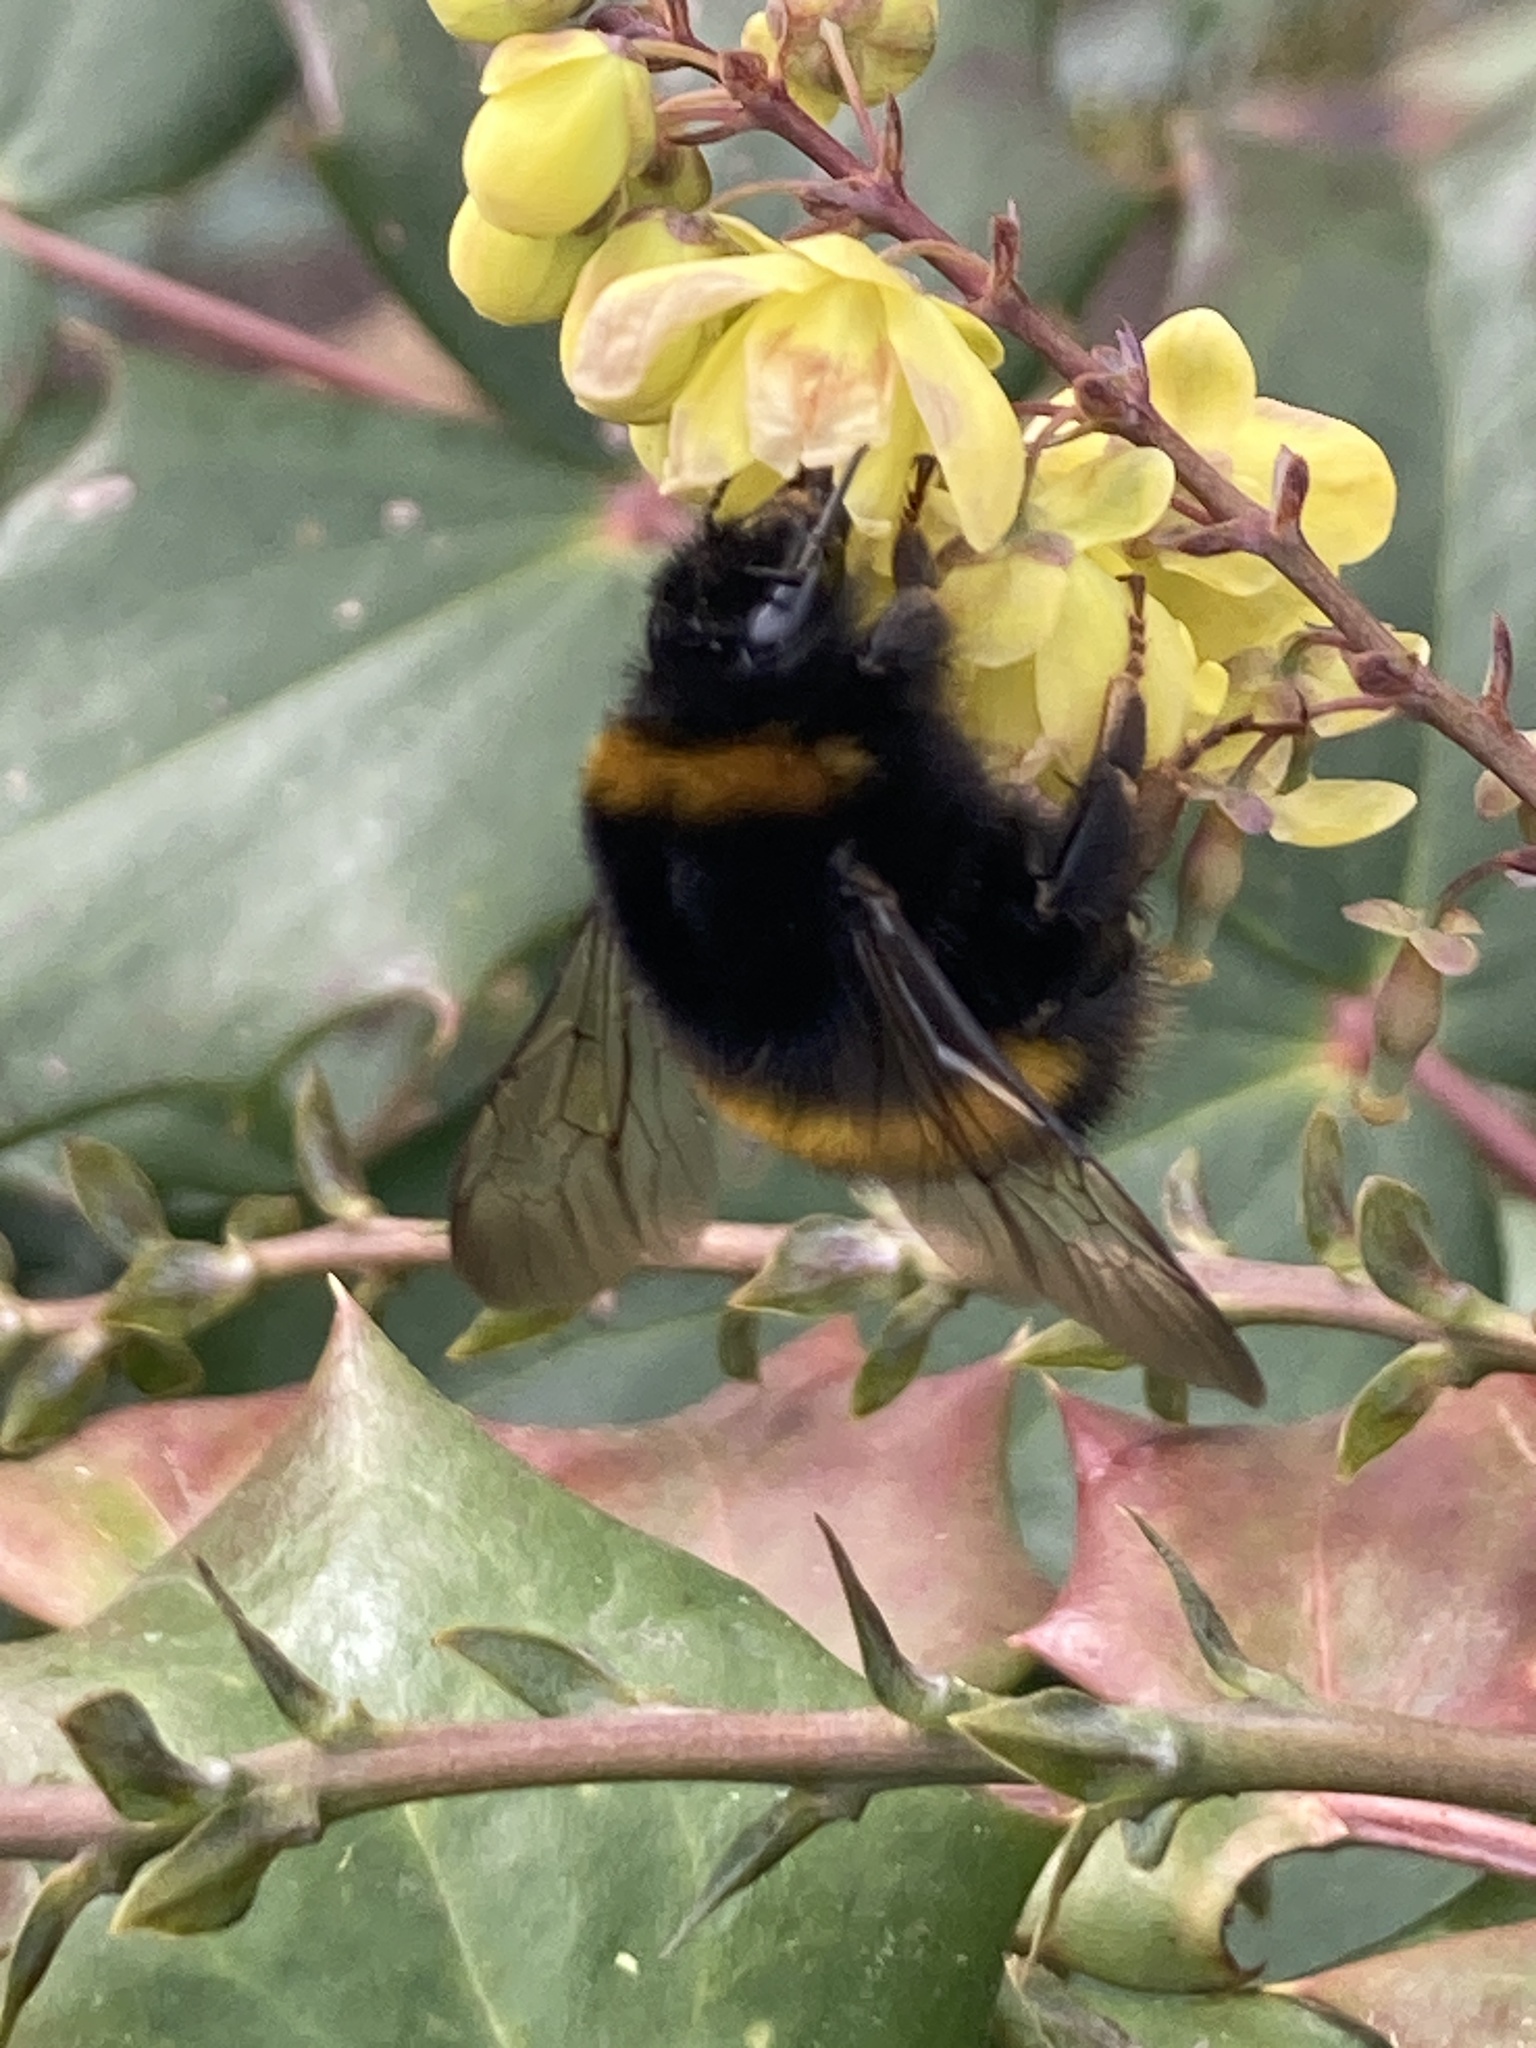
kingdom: Animalia
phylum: Arthropoda
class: Insecta
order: Hymenoptera
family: Apidae
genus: Bombus
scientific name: Bombus terrestris
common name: Buff-tailed bumblebee
